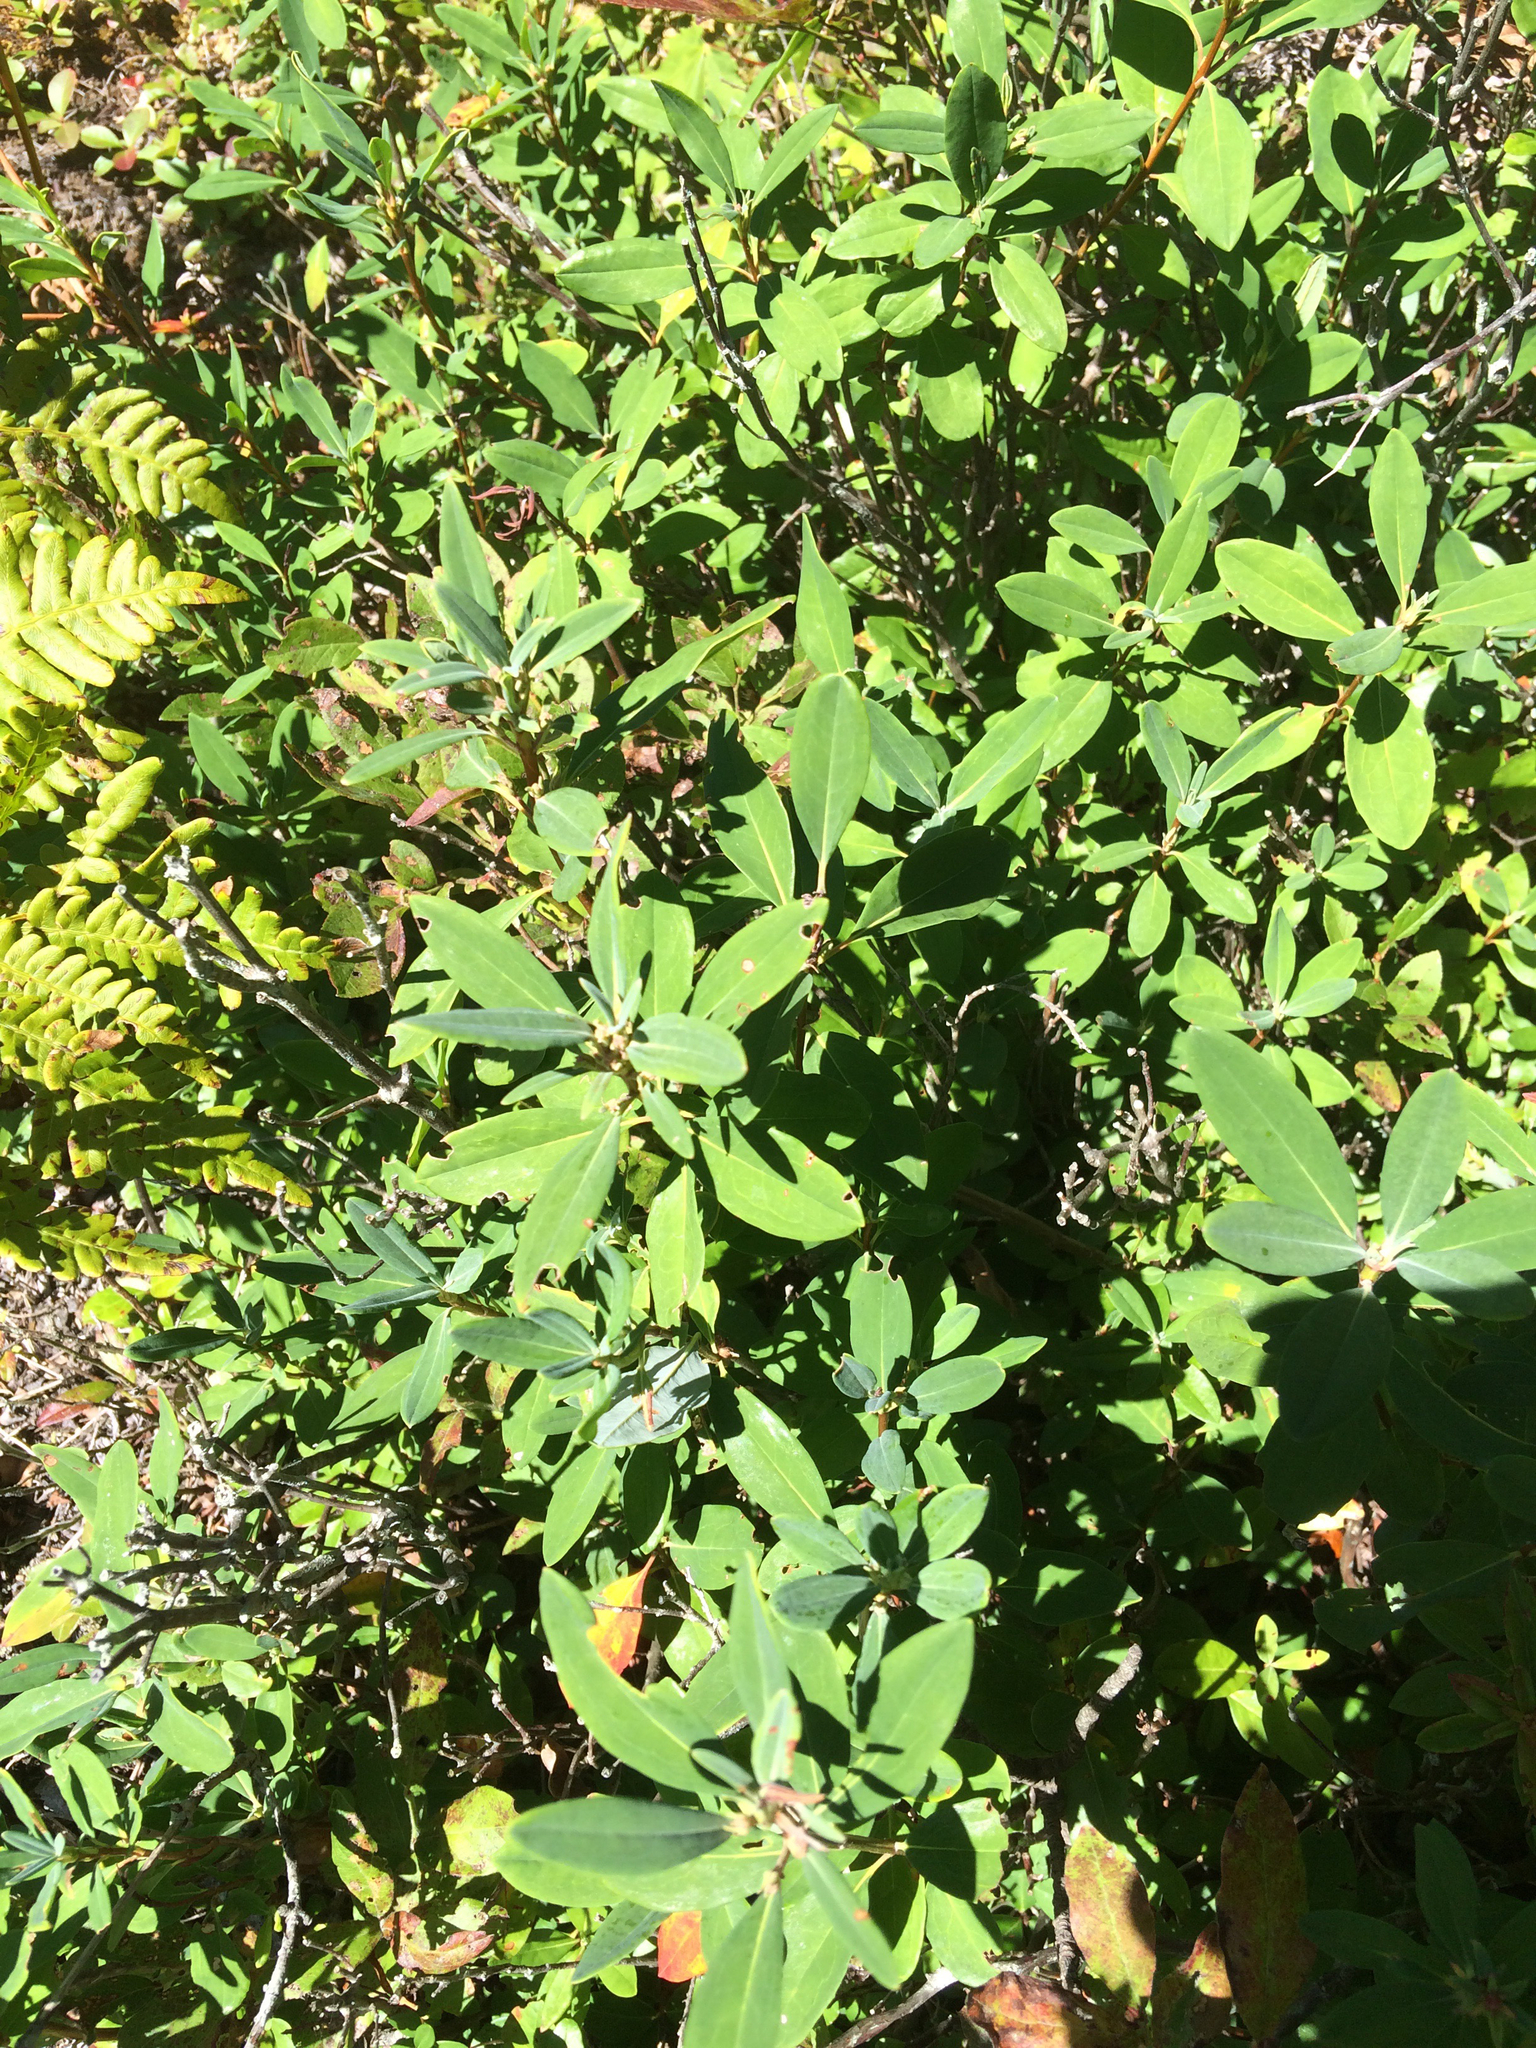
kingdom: Plantae
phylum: Tracheophyta
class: Magnoliopsida
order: Ericales
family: Ericaceae
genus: Kalmia
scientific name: Kalmia angustifolia
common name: Sheep-laurel
